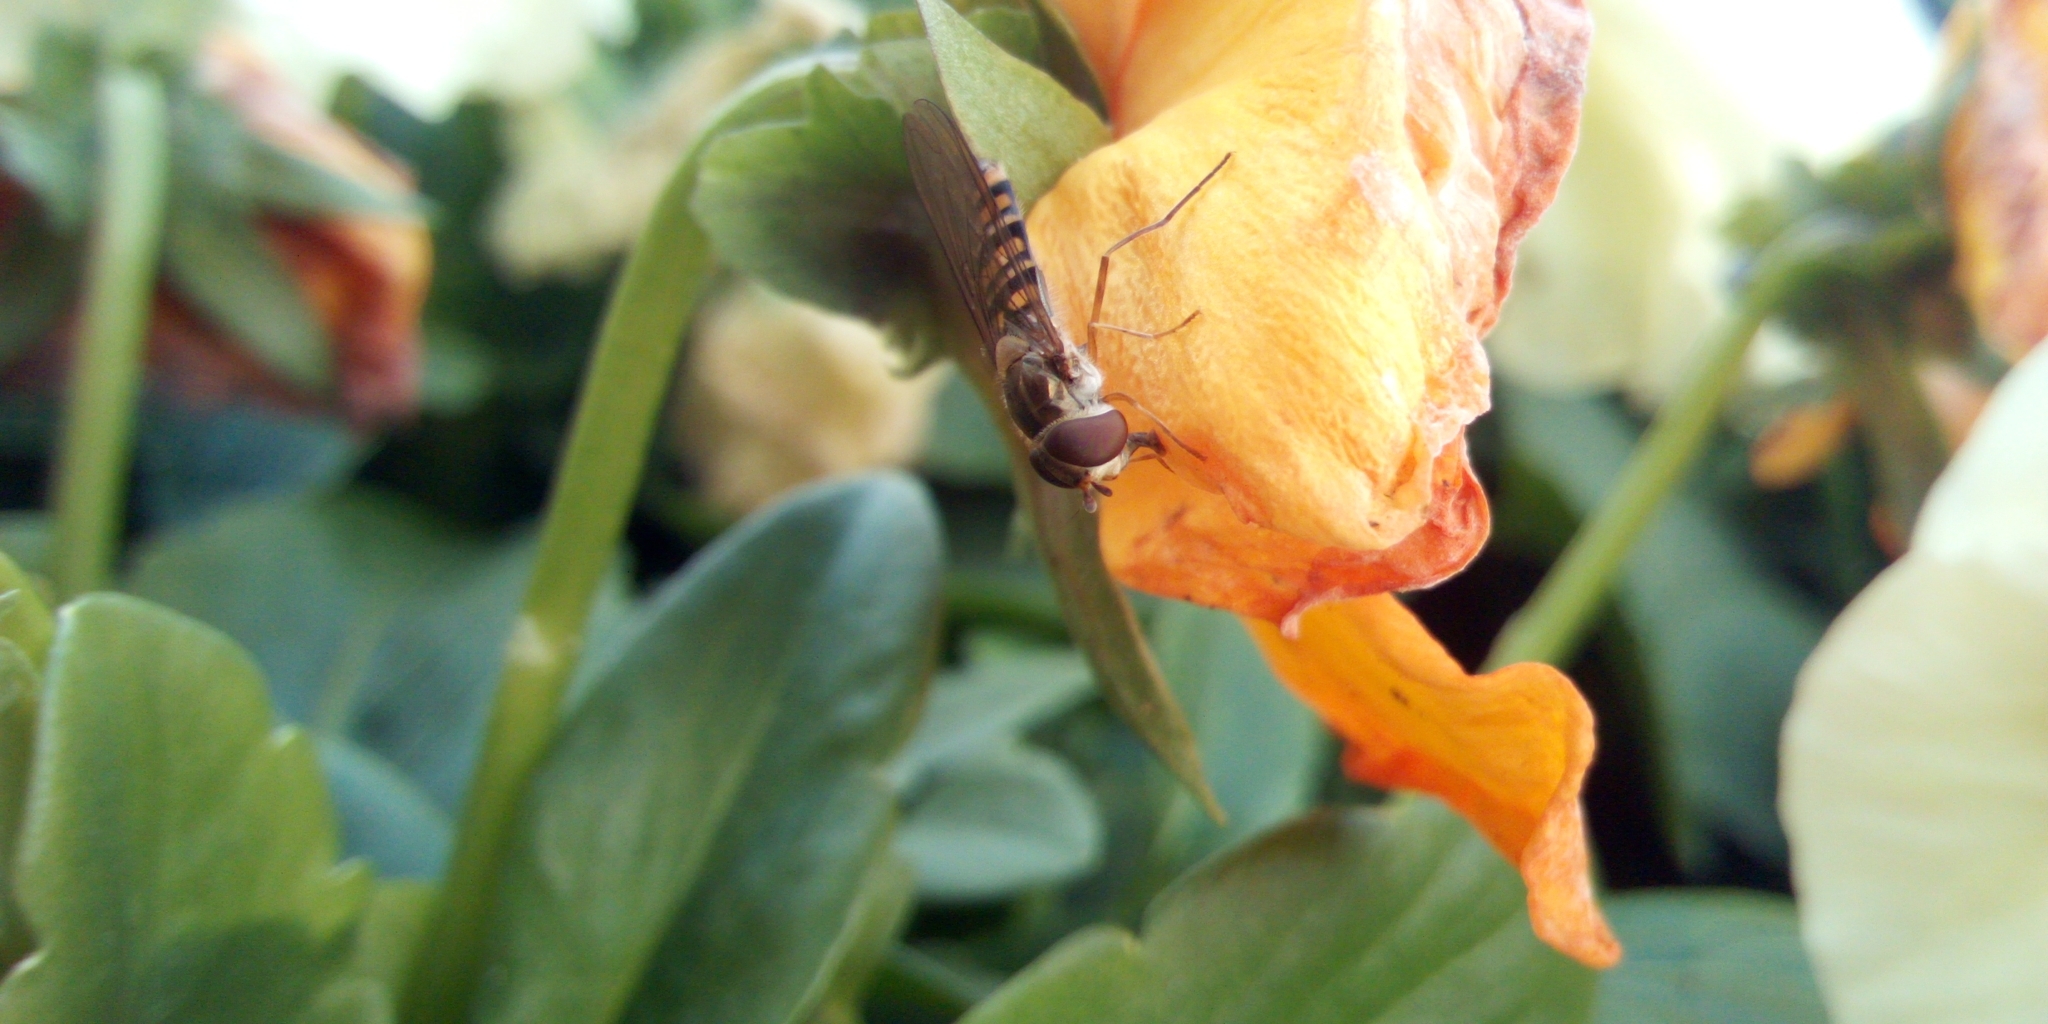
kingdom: Animalia
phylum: Arthropoda
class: Insecta
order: Diptera
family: Syrphidae
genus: Episyrphus
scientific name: Episyrphus balteatus
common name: Marmalade hoverfly
